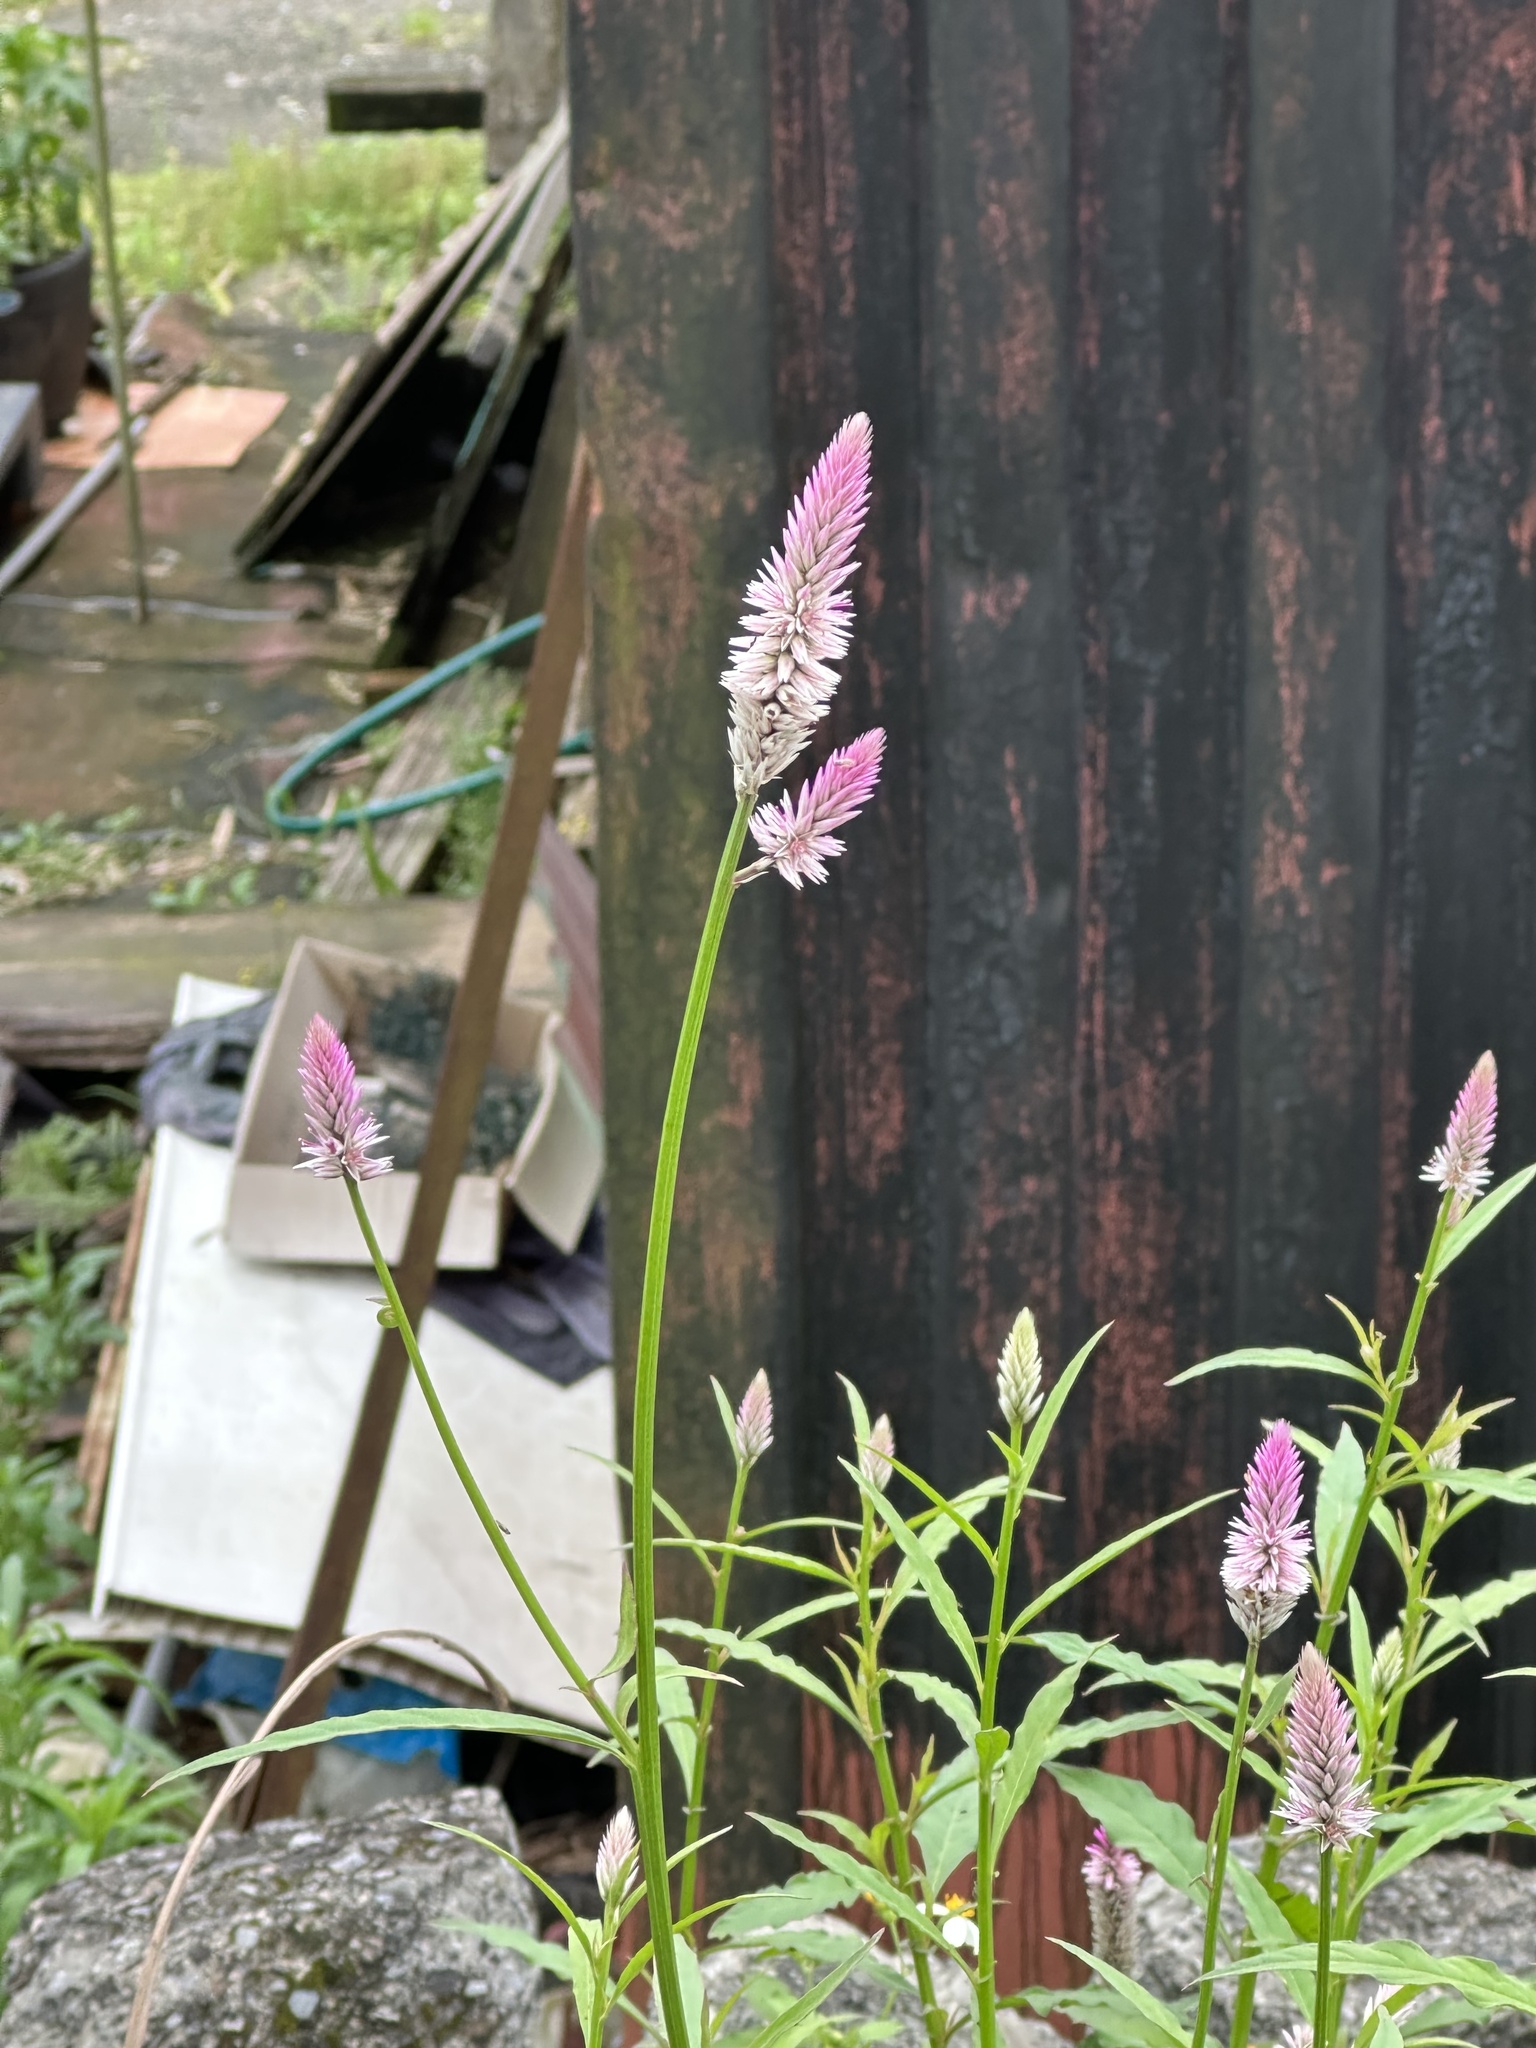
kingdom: Plantae
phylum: Tracheophyta
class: Magnoliopsida
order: Caryophyllales
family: Amaranthaceae
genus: Celosia
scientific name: Celosia argentea
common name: Feather cockscomb
